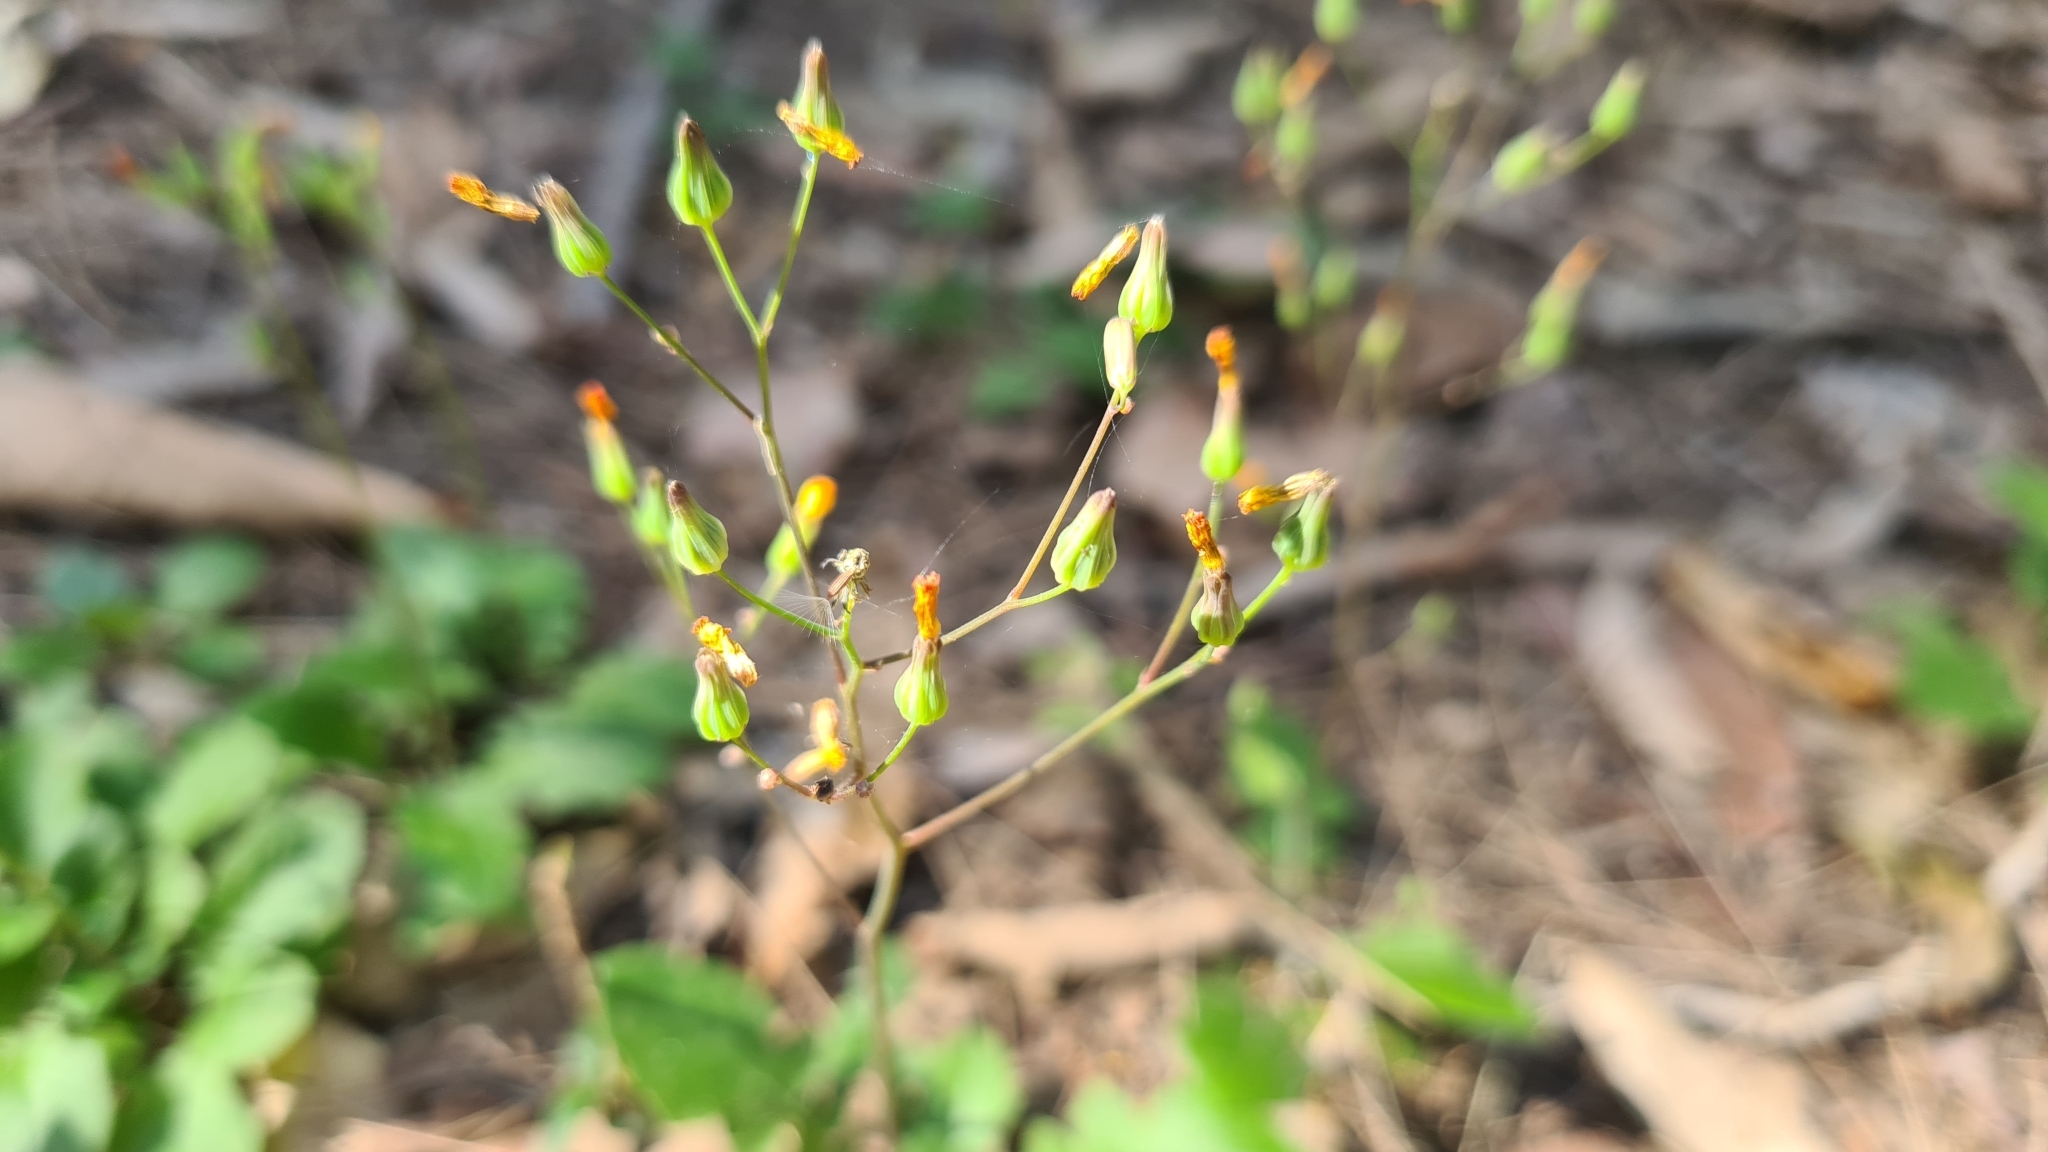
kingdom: Plantae
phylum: Tracheophyta
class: Magnoliopsida
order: Asterales
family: Asteraceae
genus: Youngia
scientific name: Youngia japonica
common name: Oriental false hawksbeard
